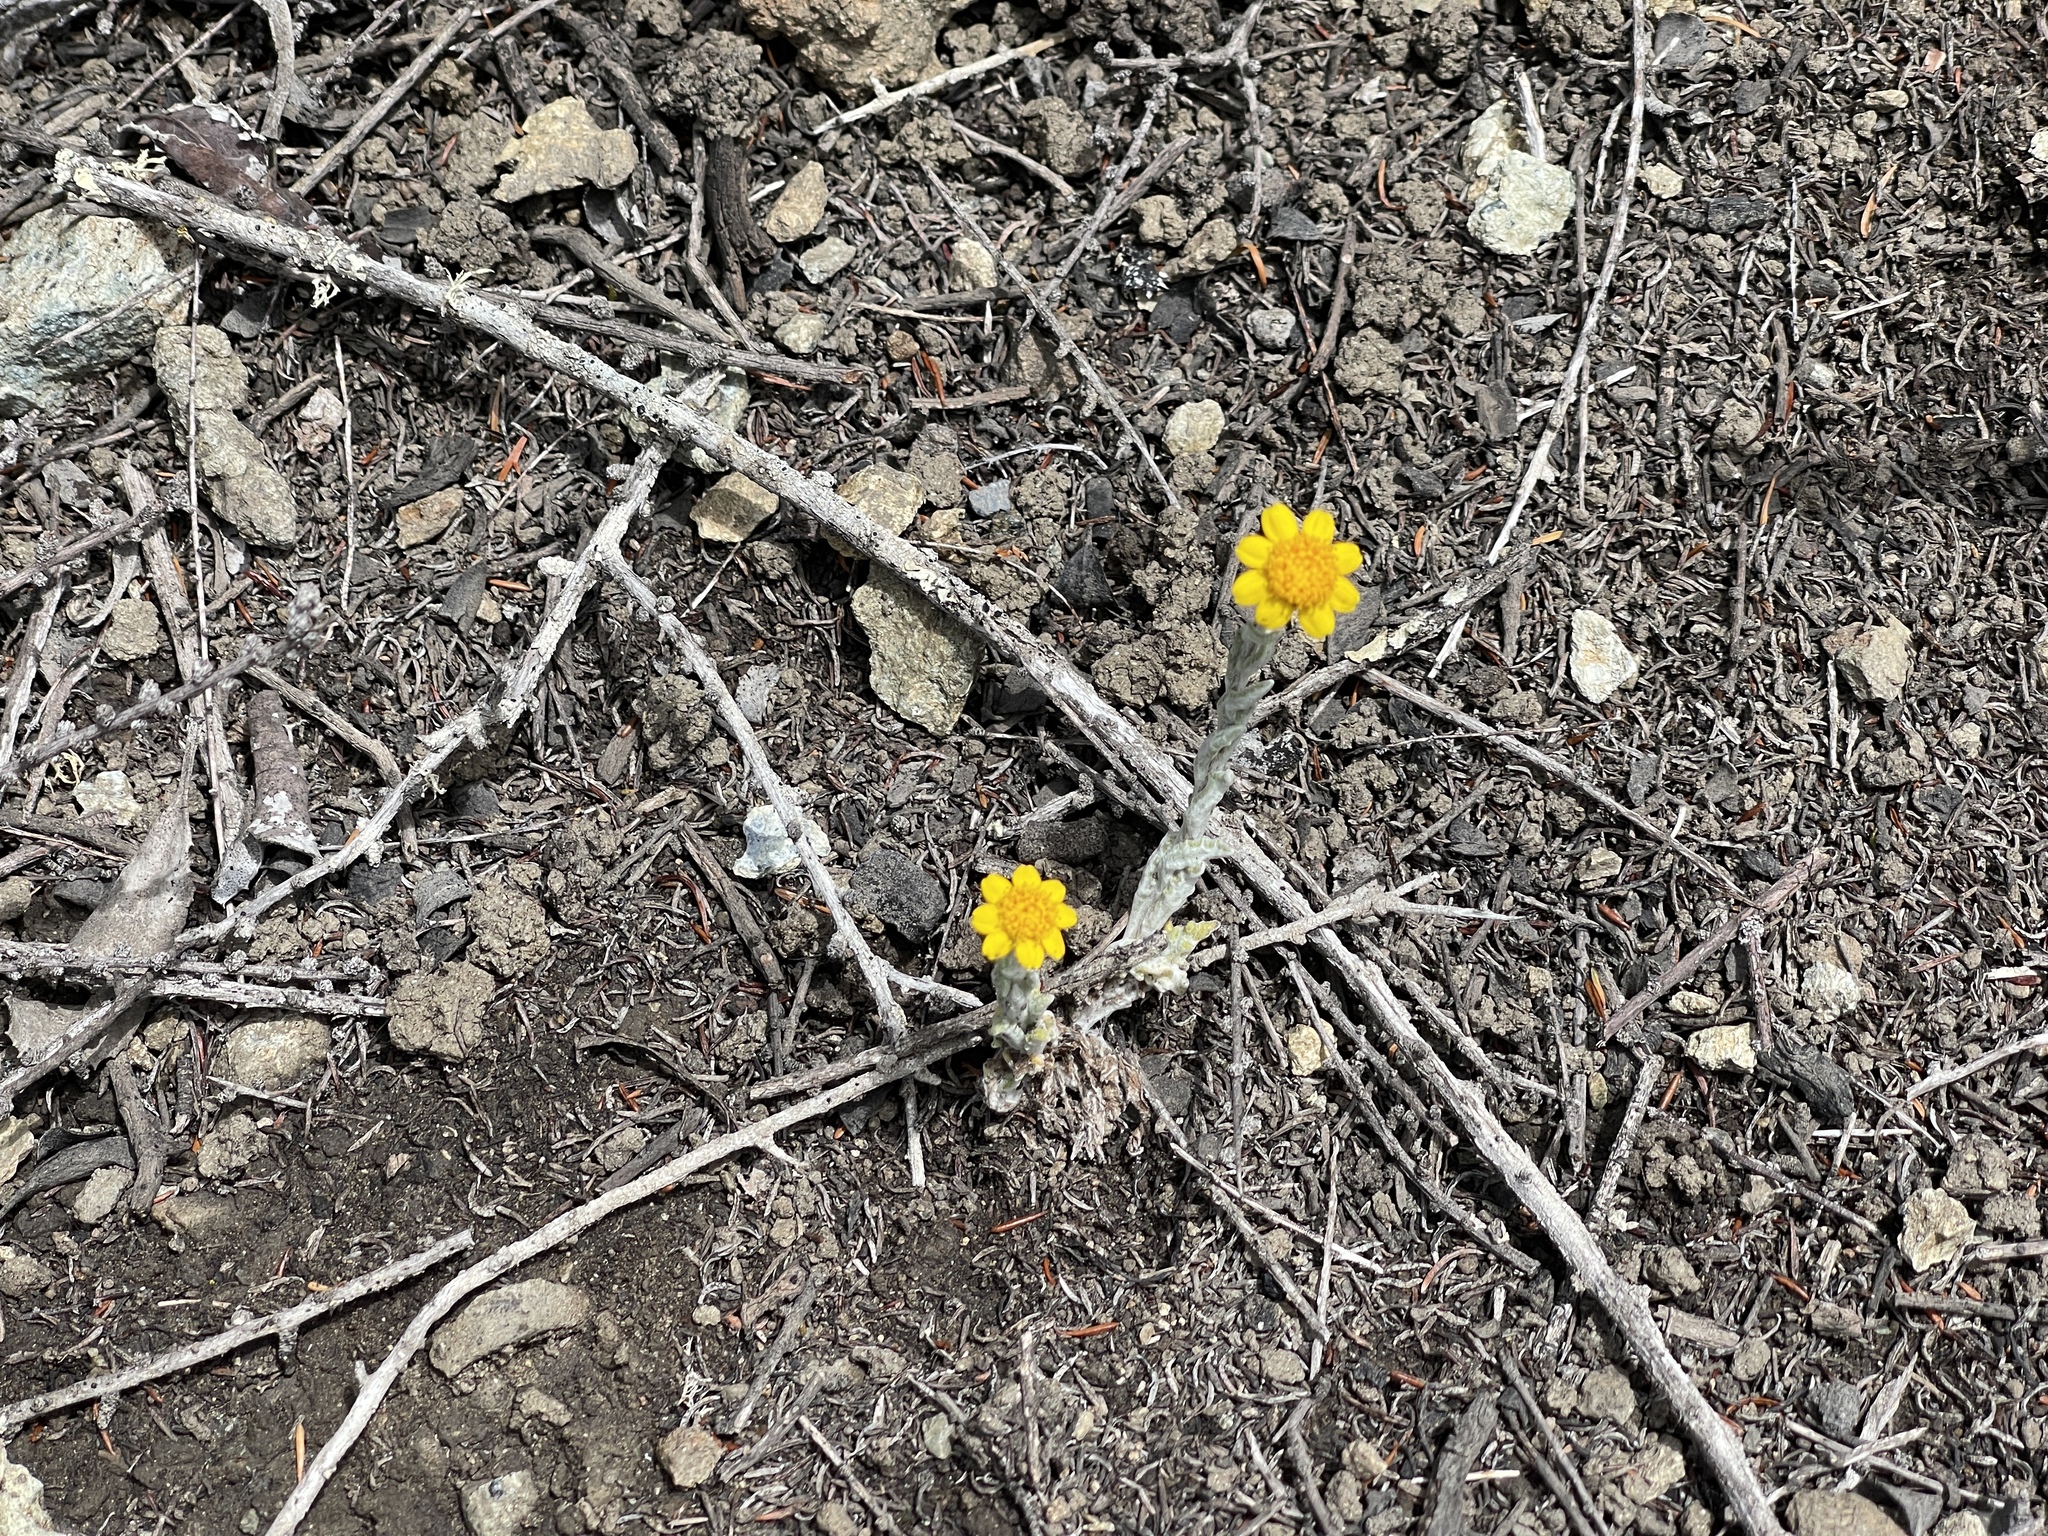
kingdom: Plantae
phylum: Tracheophyta
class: Magnoliopsida
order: Asterales
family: Asteraceae
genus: Monolopia
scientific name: Monolopia gracilens
